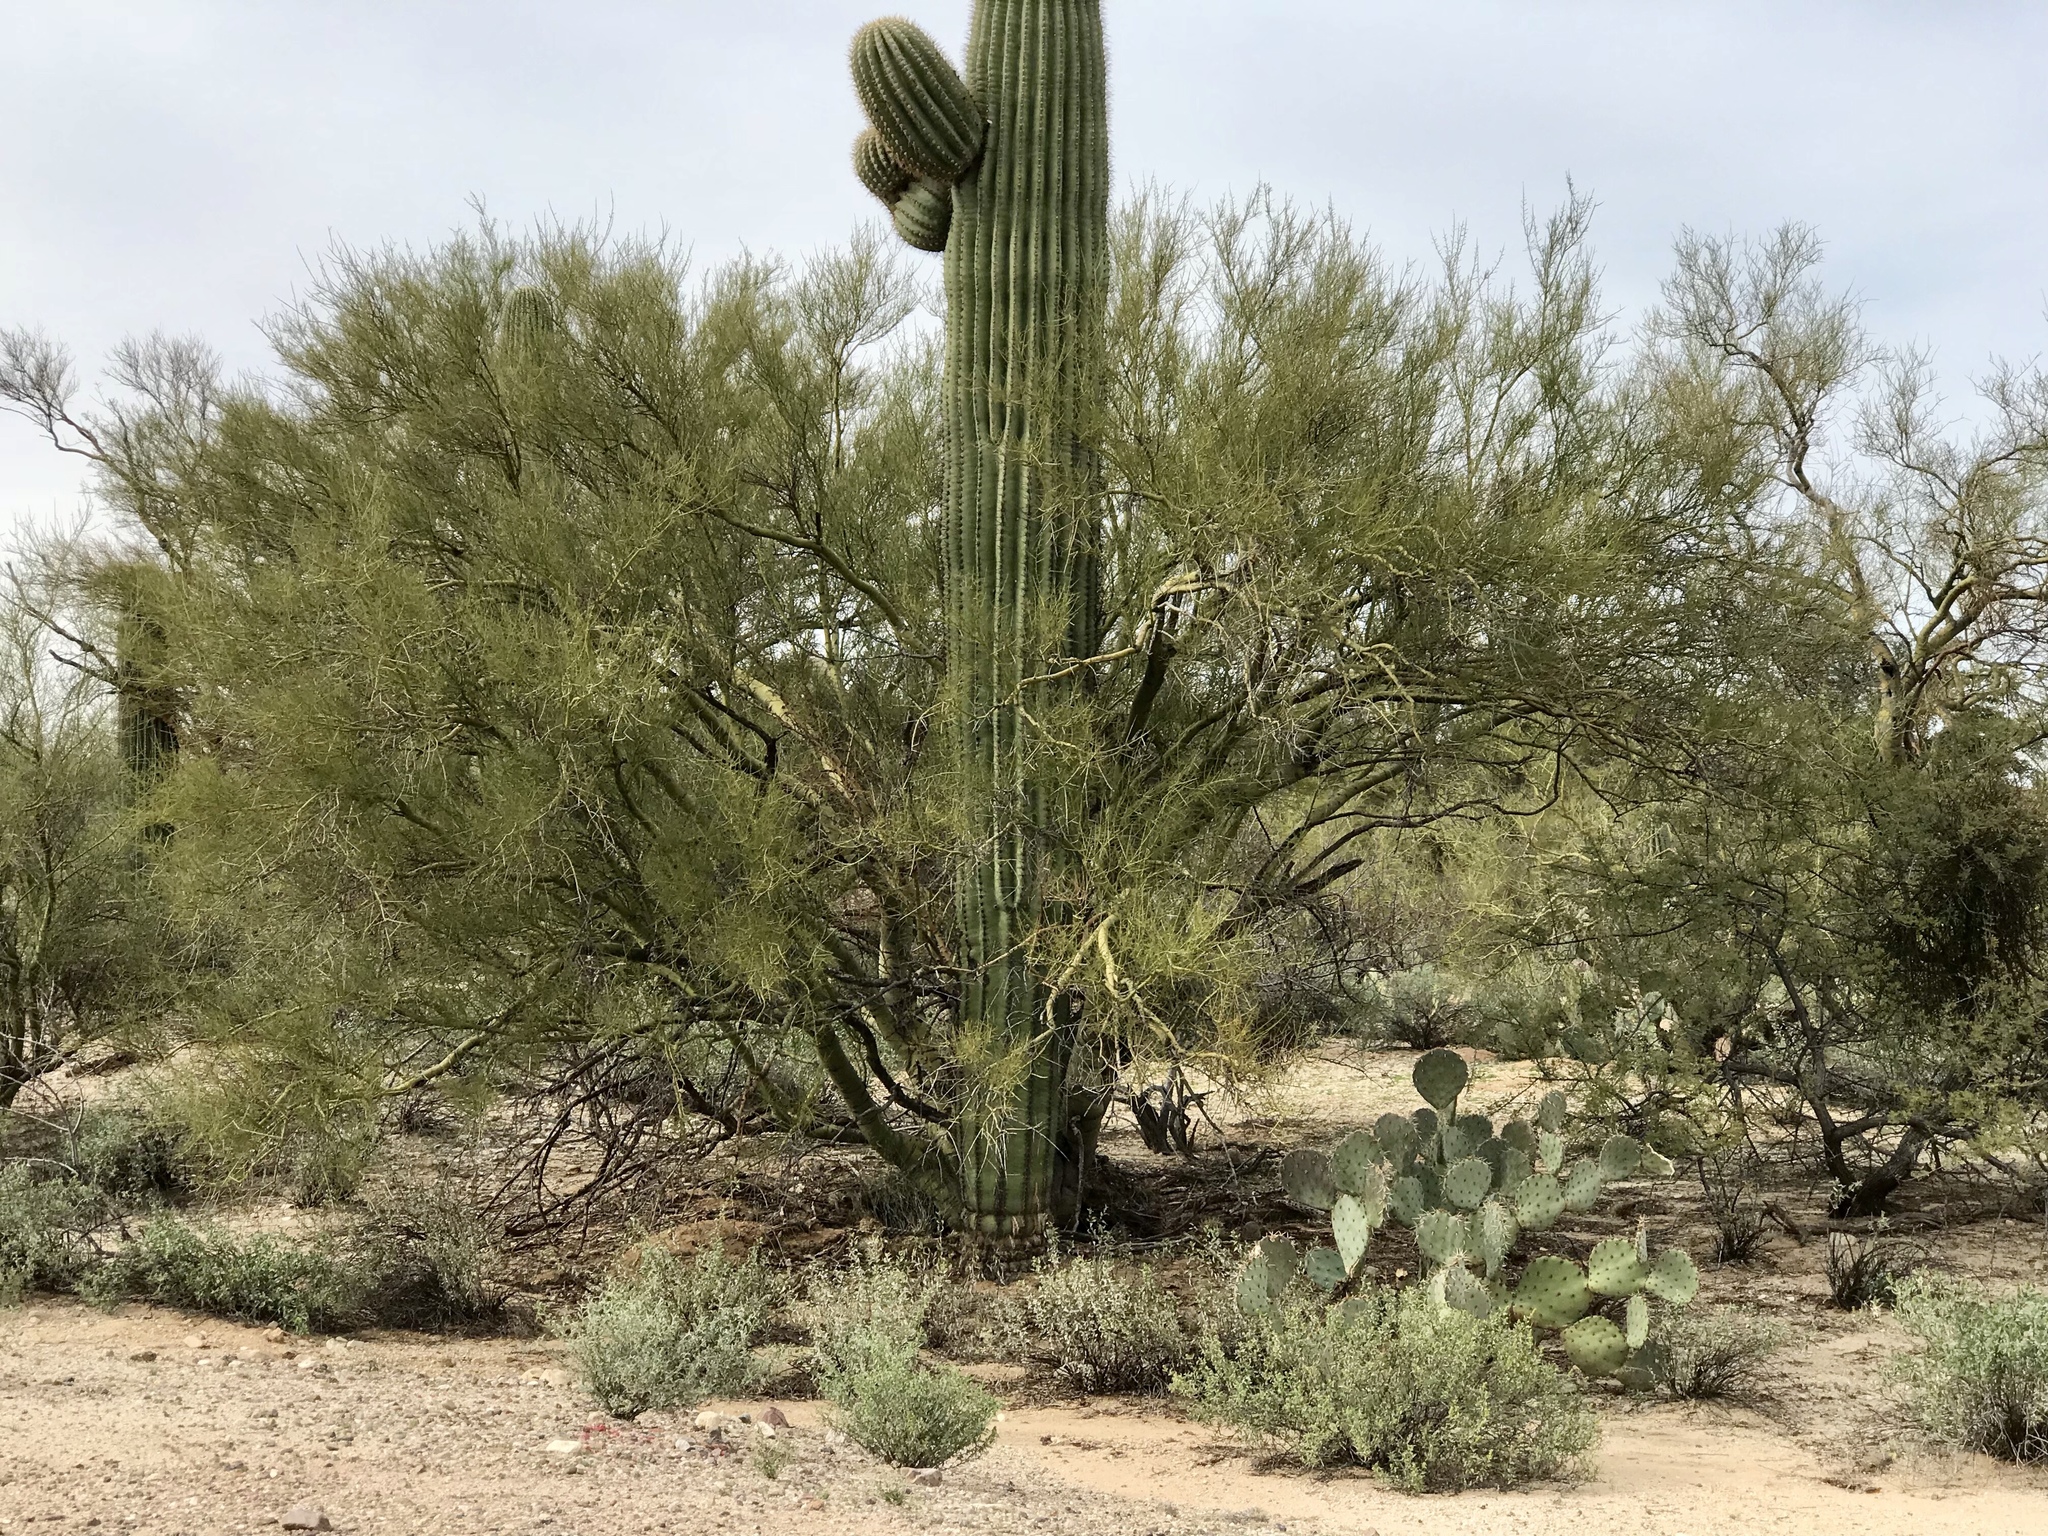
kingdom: Plantae
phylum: Tracheophyta
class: Magnoliopsida
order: Fabales
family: Fabaceae
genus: Parkinsonia
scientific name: Parkinsonia microphylla
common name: Yellow paloverde
